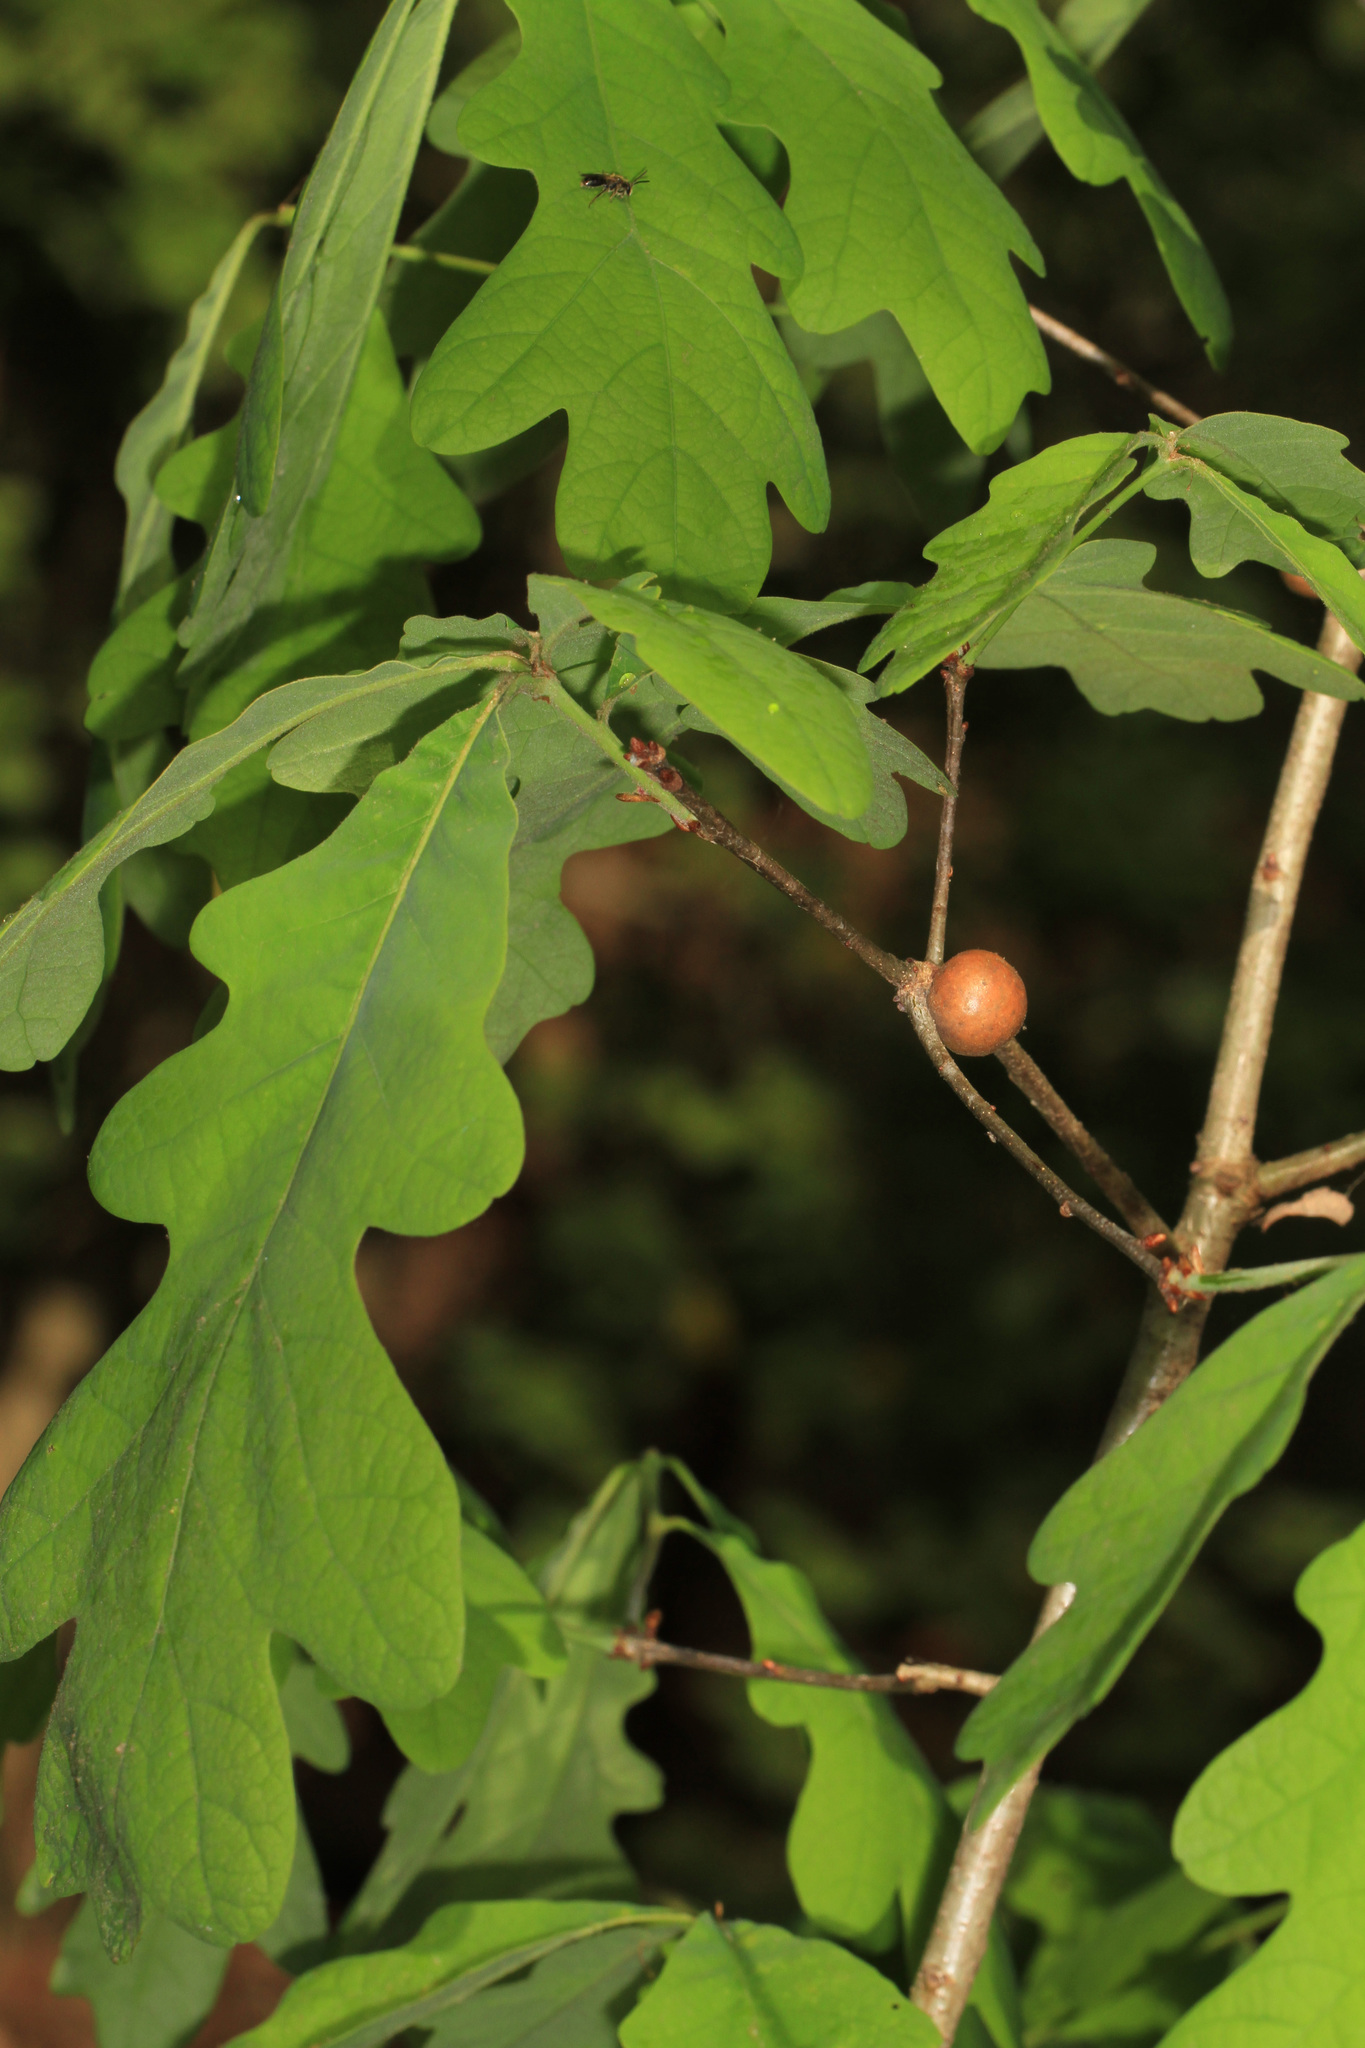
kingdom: Animalia
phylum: Arthropoda
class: Insecta
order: Hymenoptera
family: Cynipidae
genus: Disholcaspis
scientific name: Disholcaspis quercusglobulus
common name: Round bullet gall wasp
